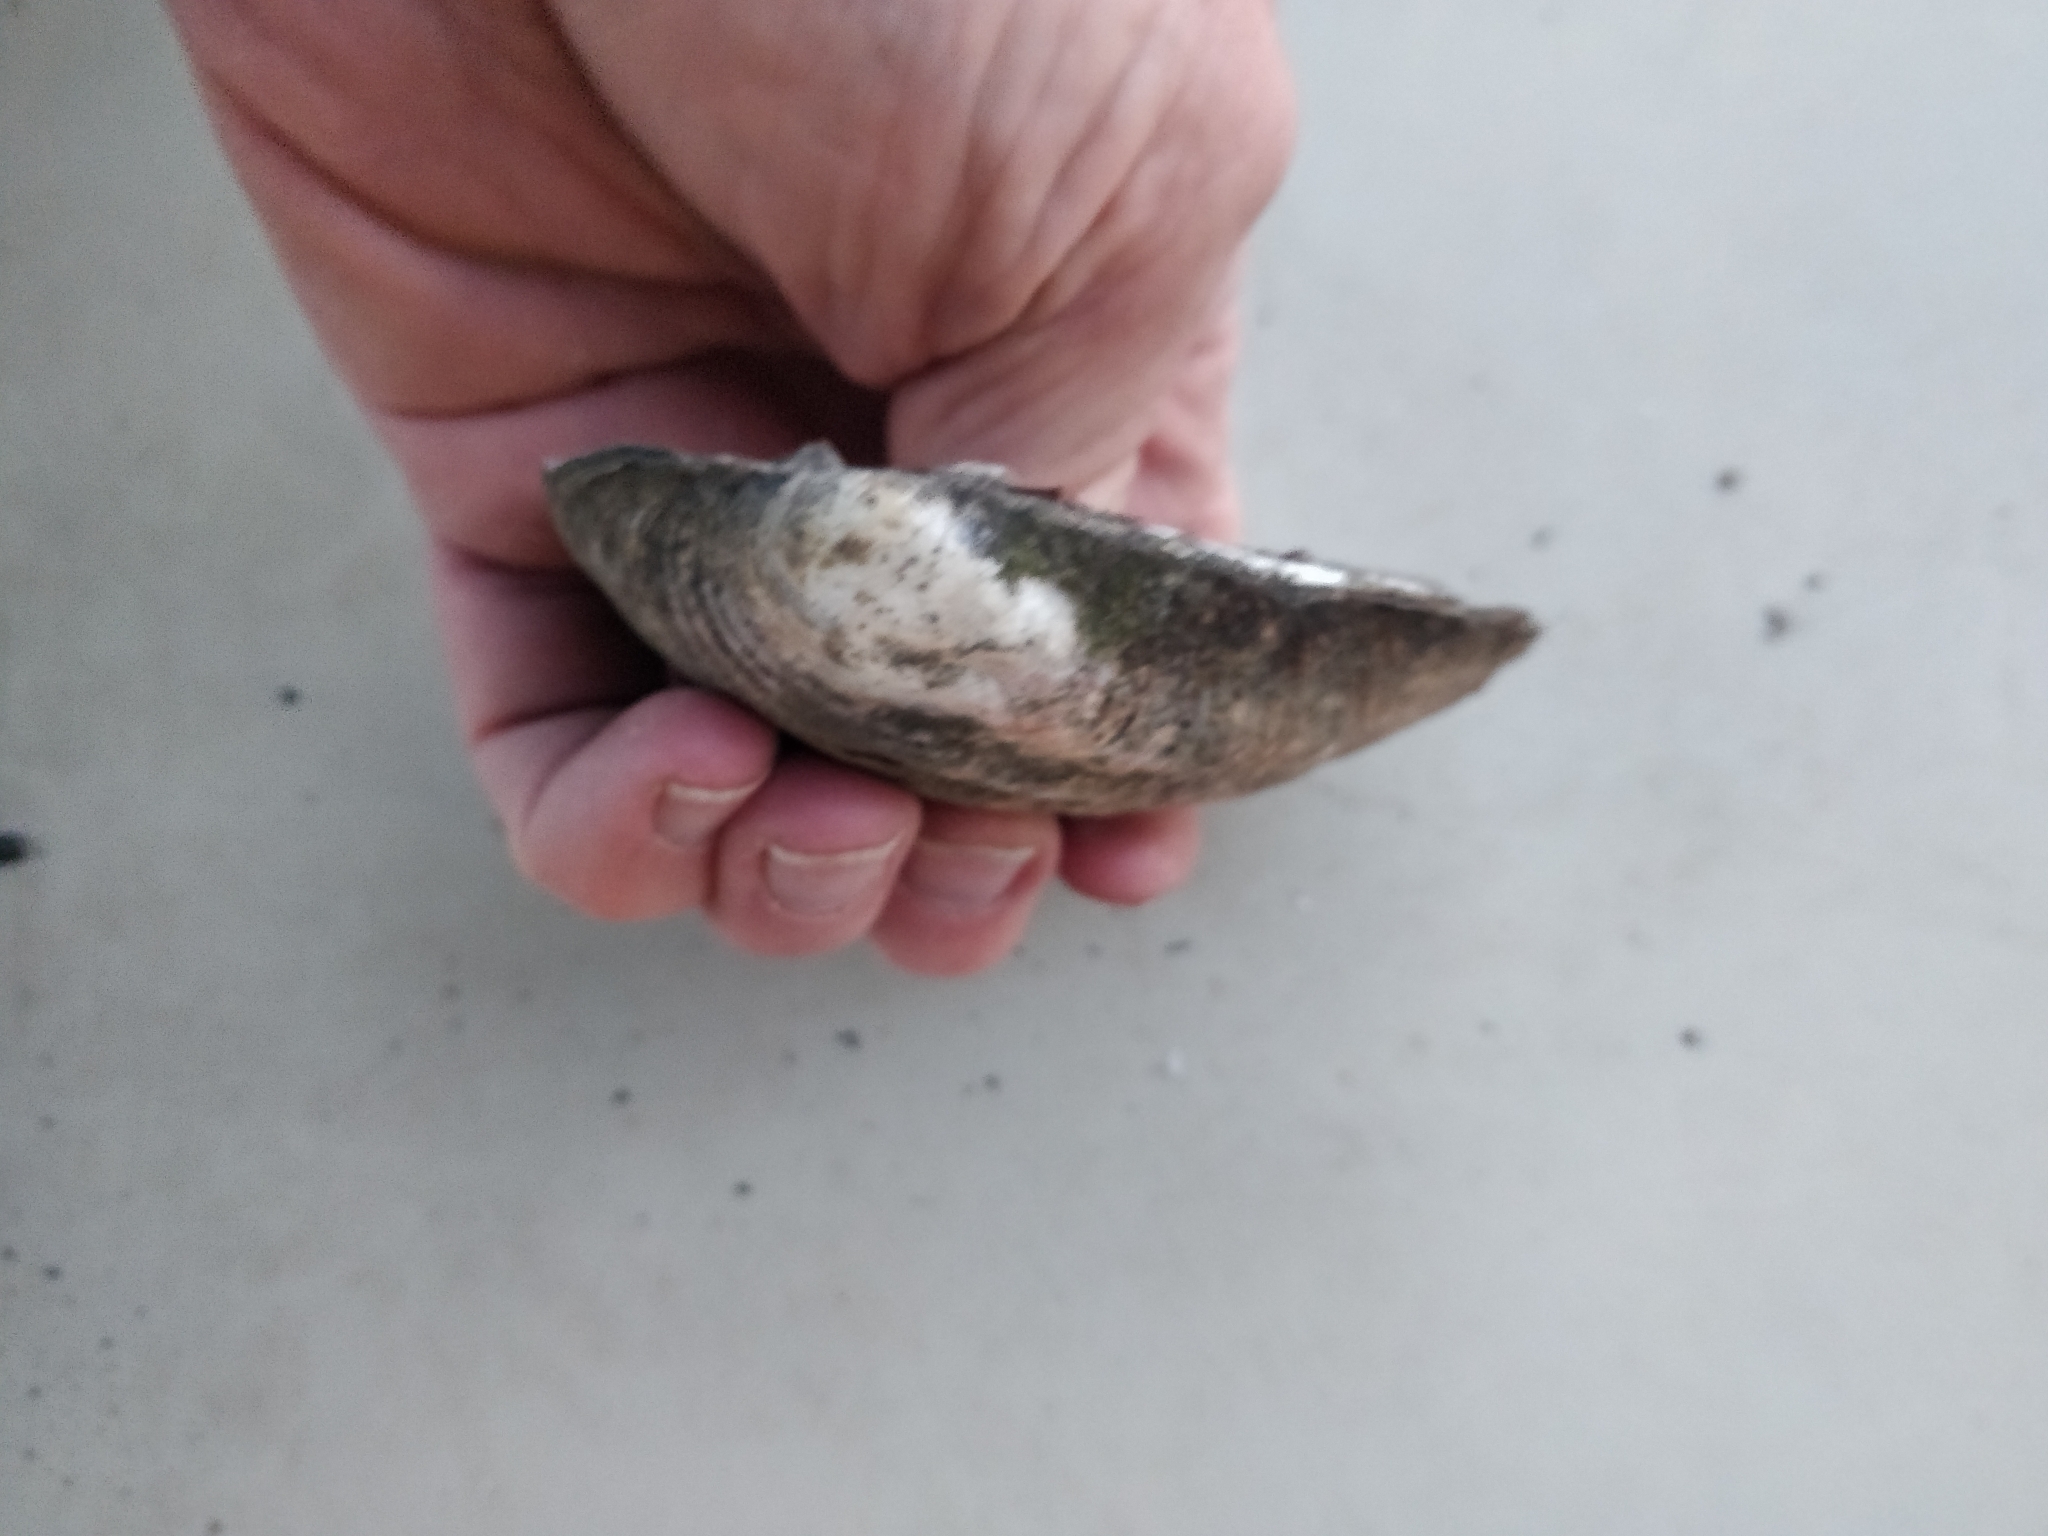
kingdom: Animalia
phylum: Mollusca
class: Bivalvia
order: Unionida
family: Unionidae
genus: Amblema
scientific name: Amblema plicata
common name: Threeridge
